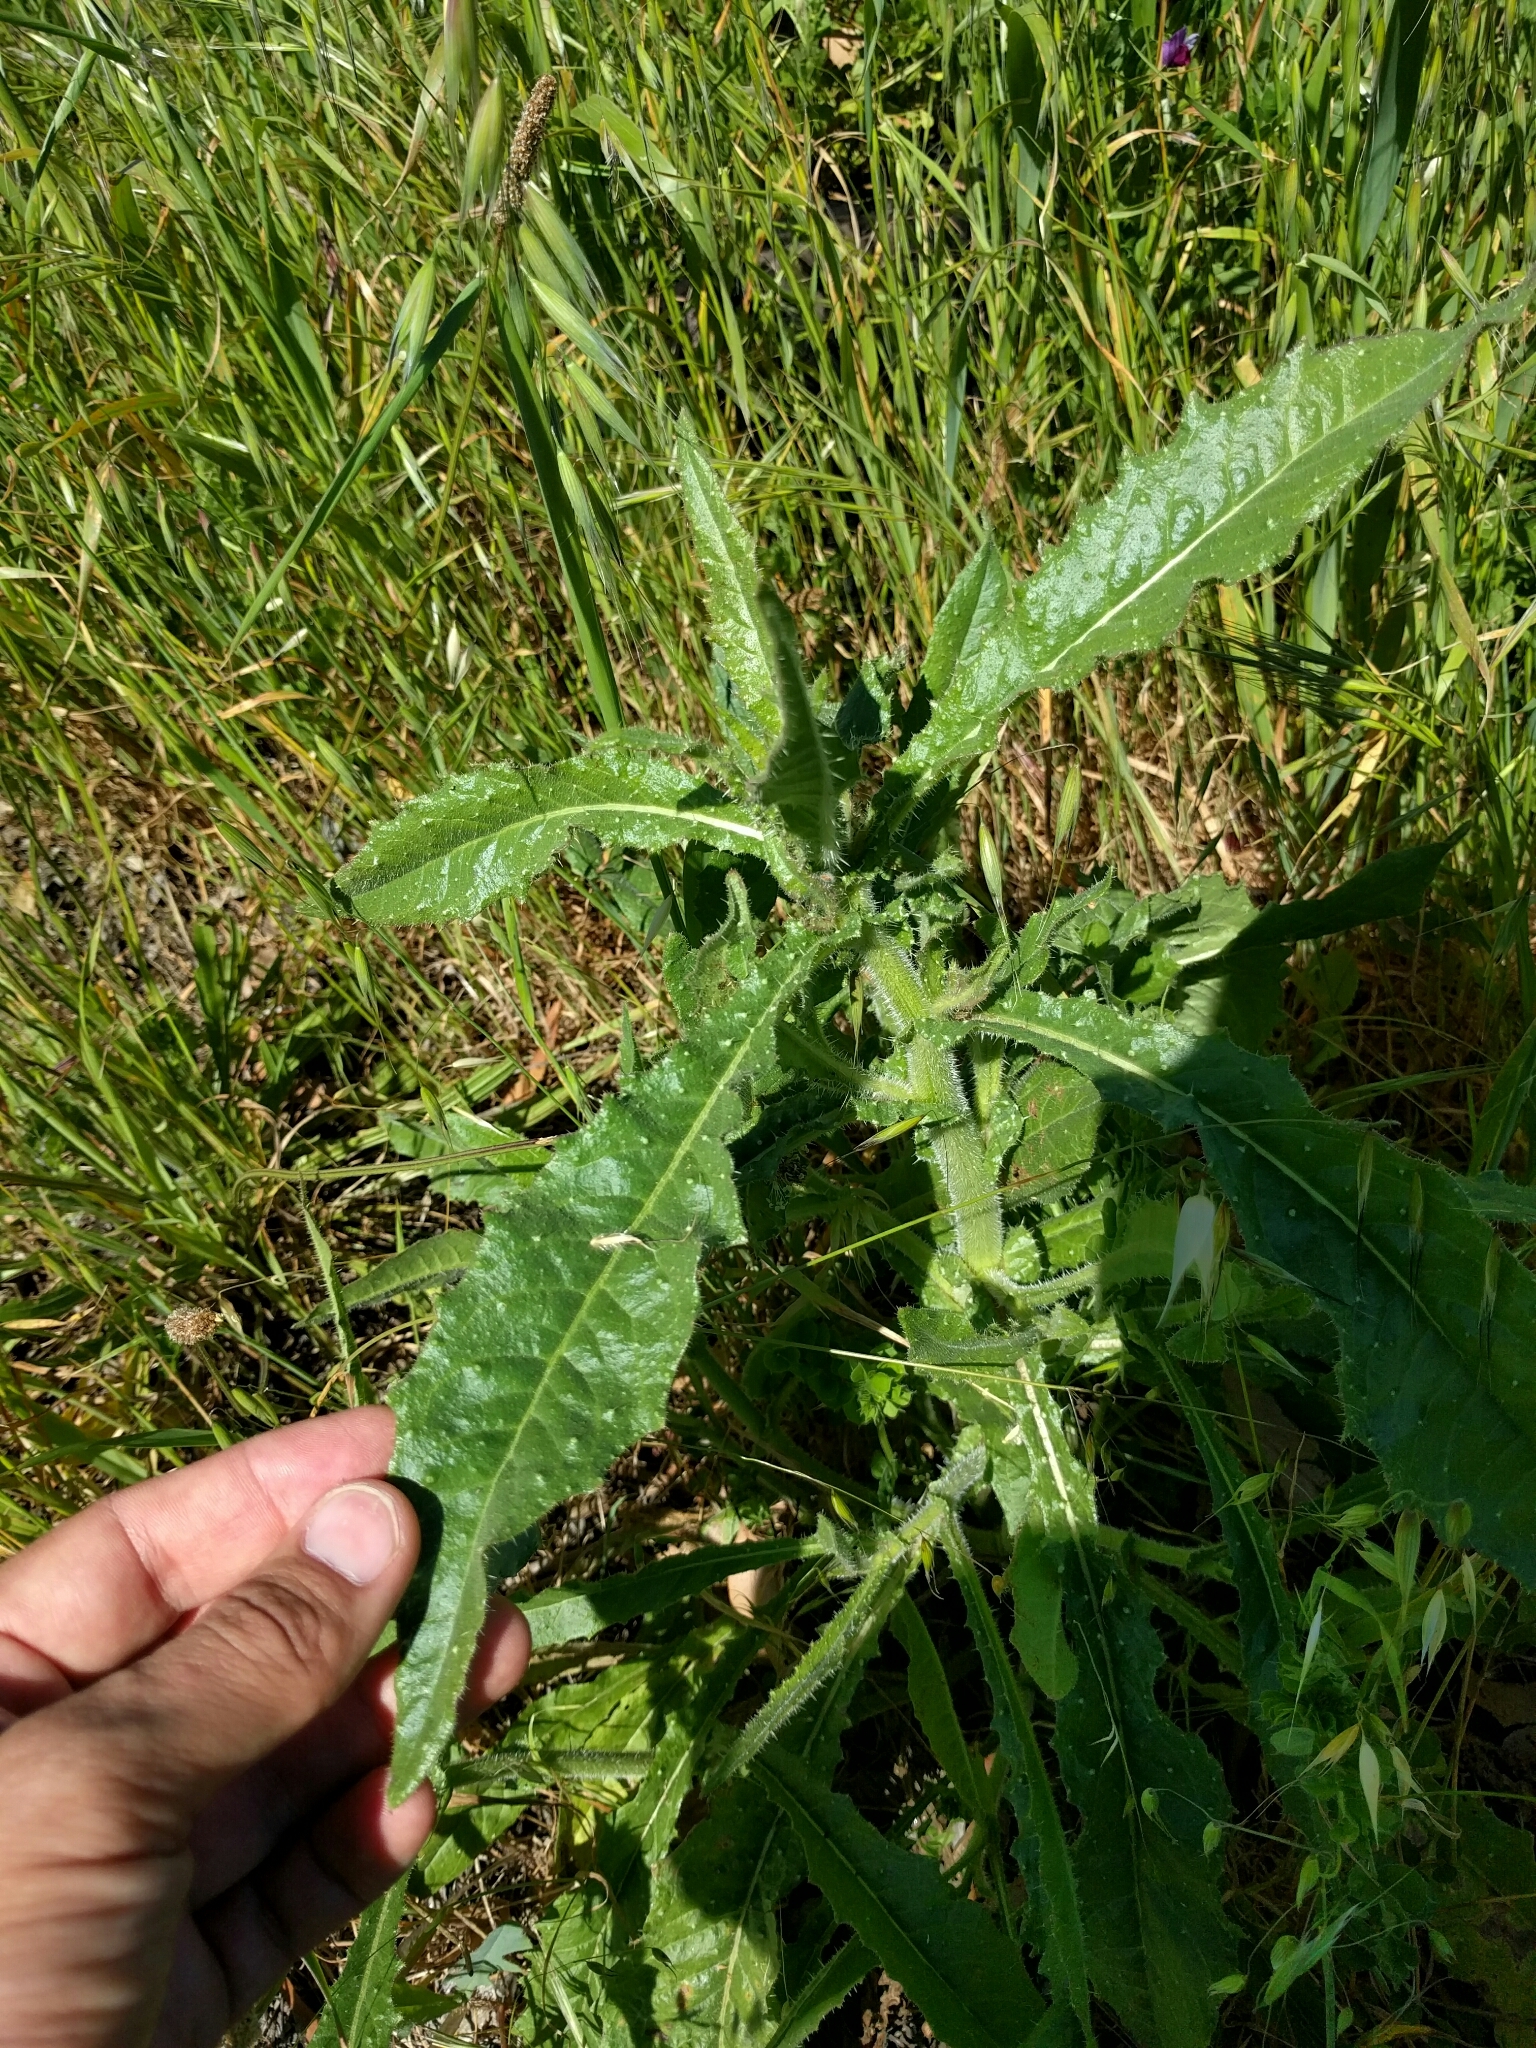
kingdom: Plantae
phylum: Tracheophyta
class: Magnoliopsida
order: Asterales
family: Asteraceae
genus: Helminthotheca
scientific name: Helminthotheca echioides
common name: Ox-tongue
